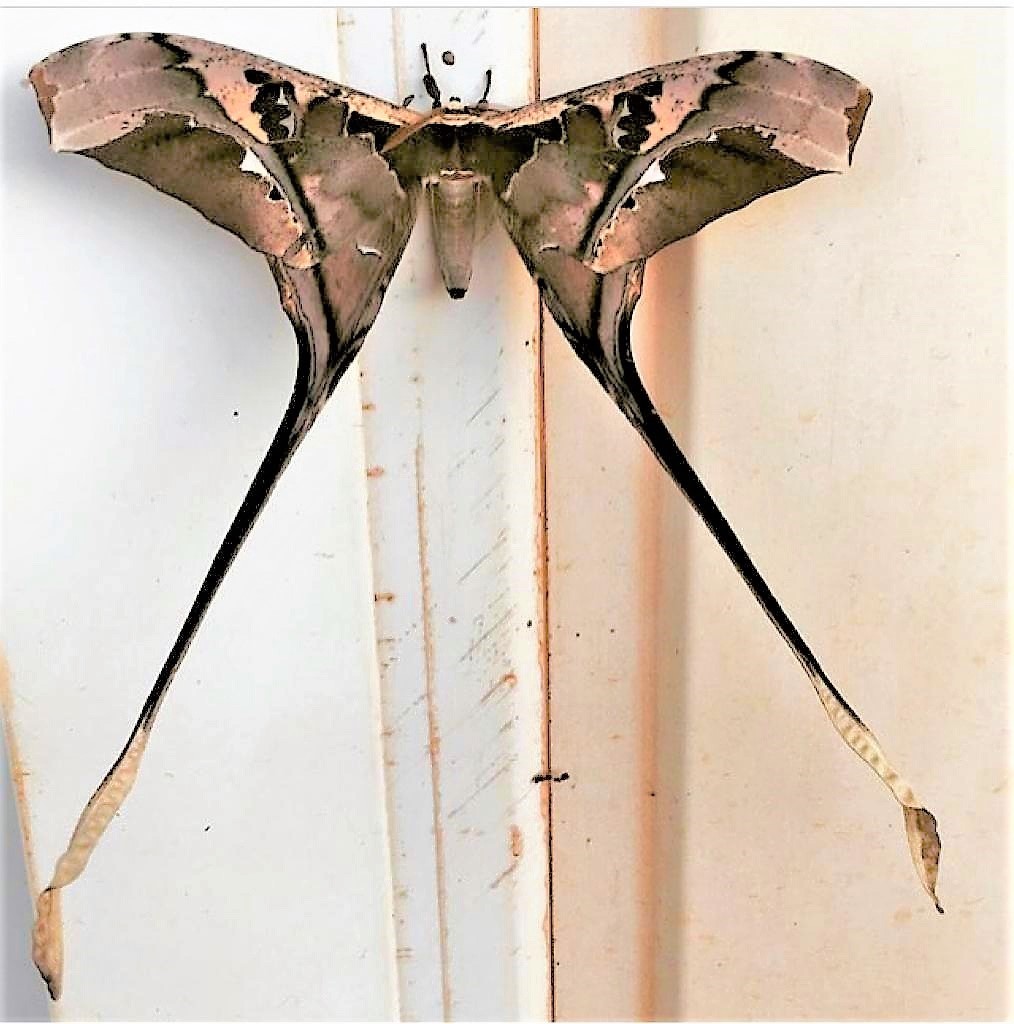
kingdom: Animalia
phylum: Arthropoda
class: Insecta
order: Lepidoptera
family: Saturniidae
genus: Copiopteryx
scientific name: Copiopteryx semiramis
